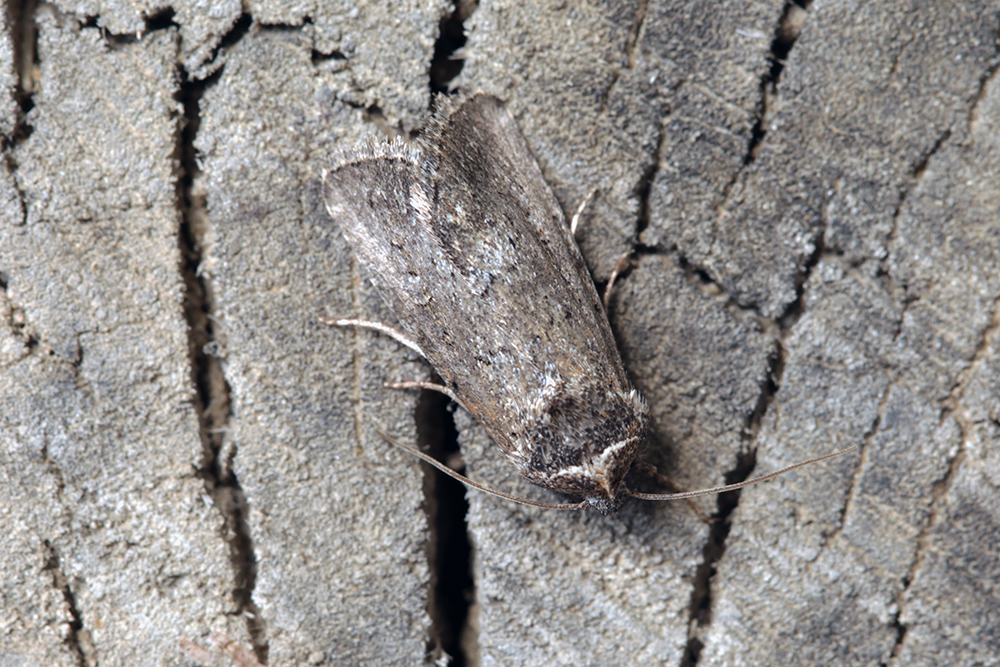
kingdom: Animalia
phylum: Arthropoda
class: Insecta
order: Lepidoptera
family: Noctuidae
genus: Sympistis
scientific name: Sympistis heliophila
